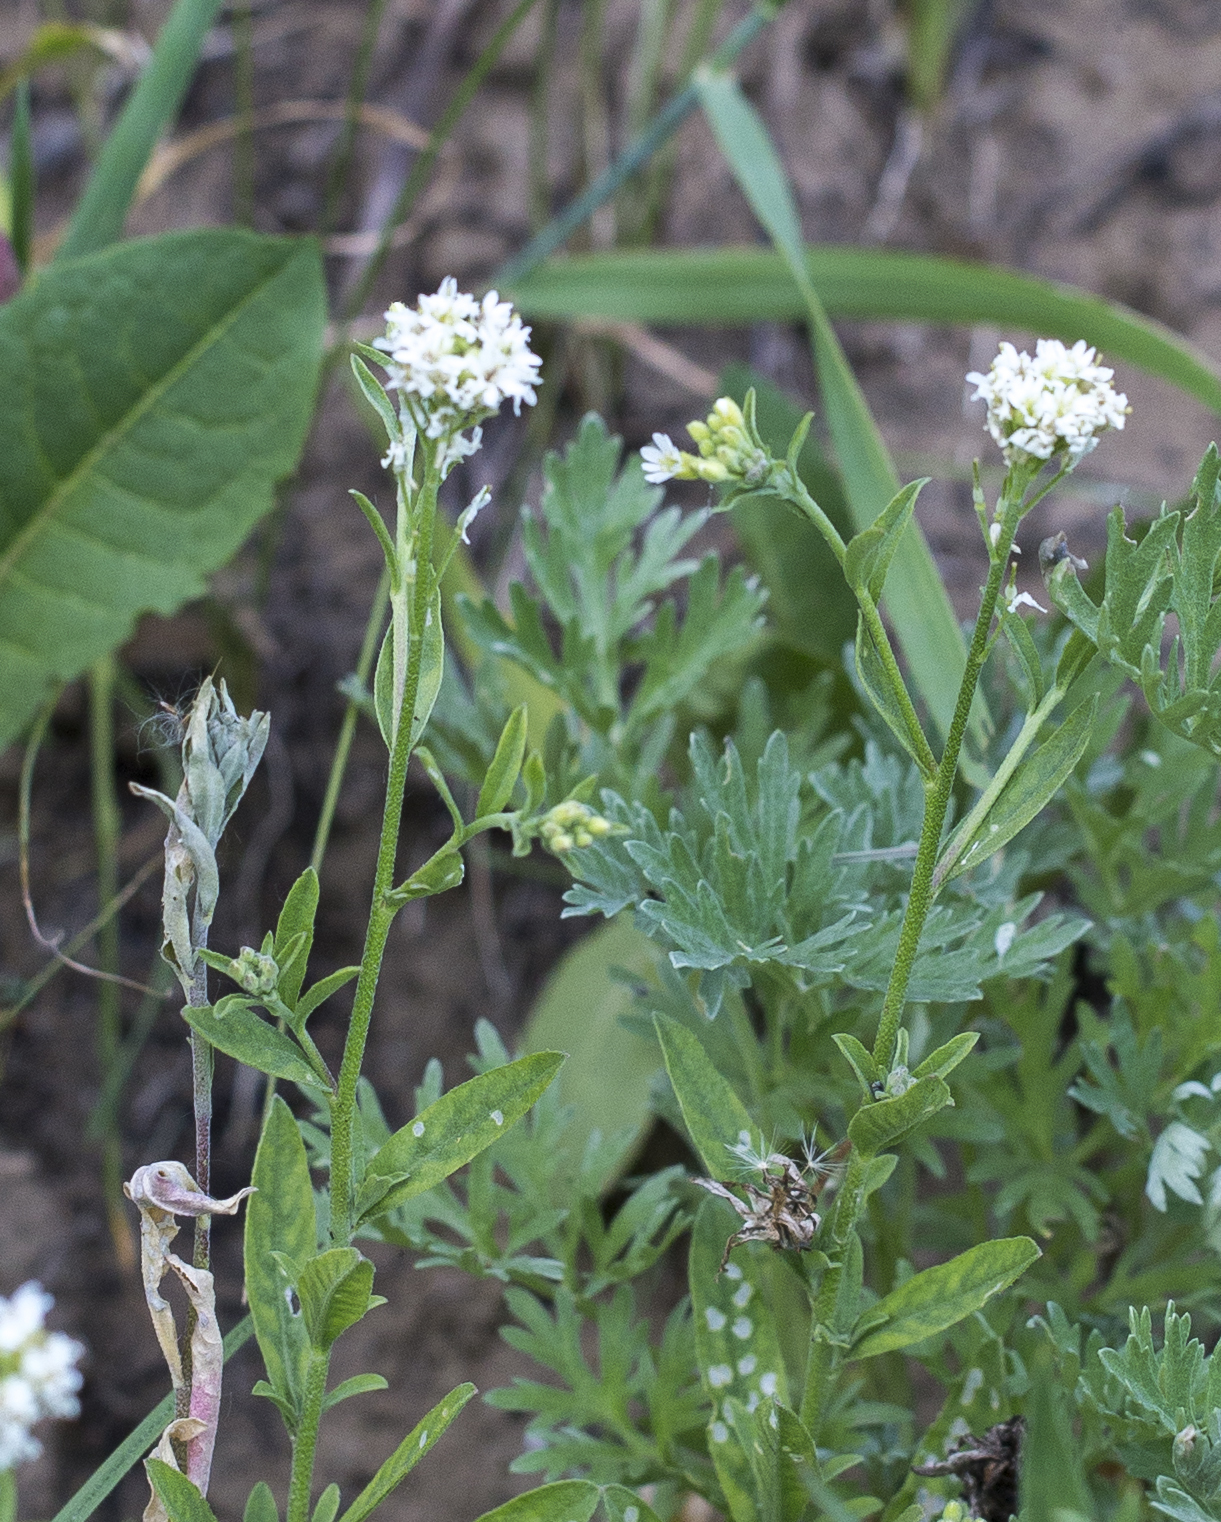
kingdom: Plantae
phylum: Tracheophyta
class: Magnoliopsida
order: Brassicales
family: Brassicaceae
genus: Berteroa
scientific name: Berteroa incana
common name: Hoary alison
